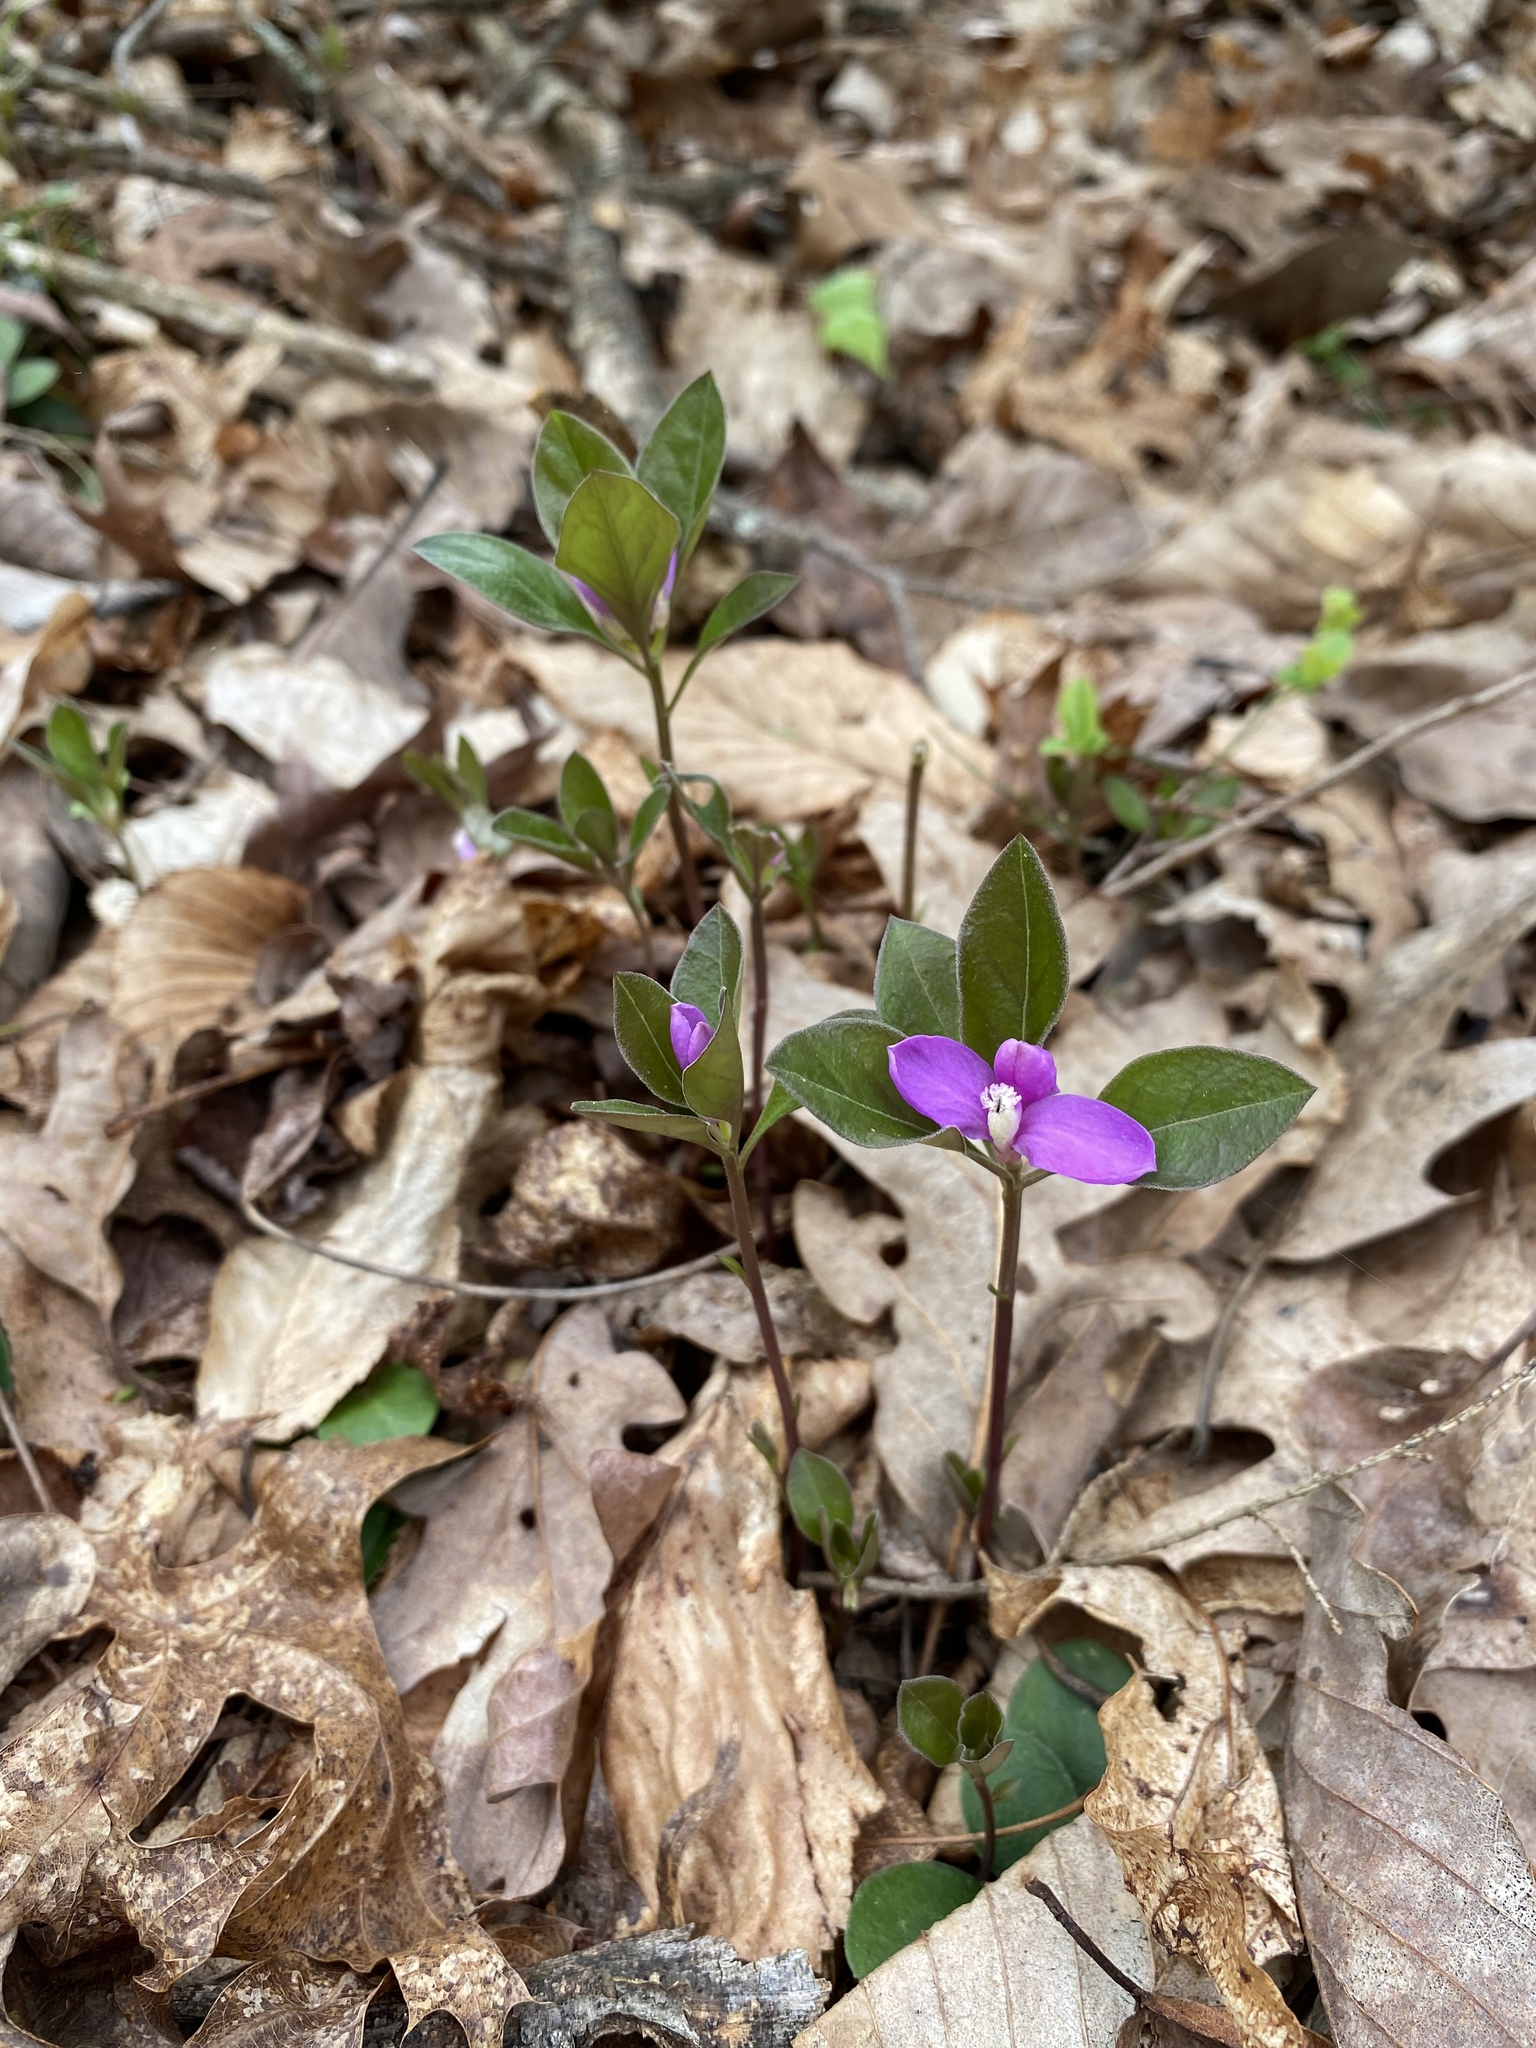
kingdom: Plantae
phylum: Tracheophyta
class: Magnoliopsida
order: Fabales
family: Polygalaceae
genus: Polygaloides
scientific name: Polygaloides paucifolia
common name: Bird-on-the-wing
